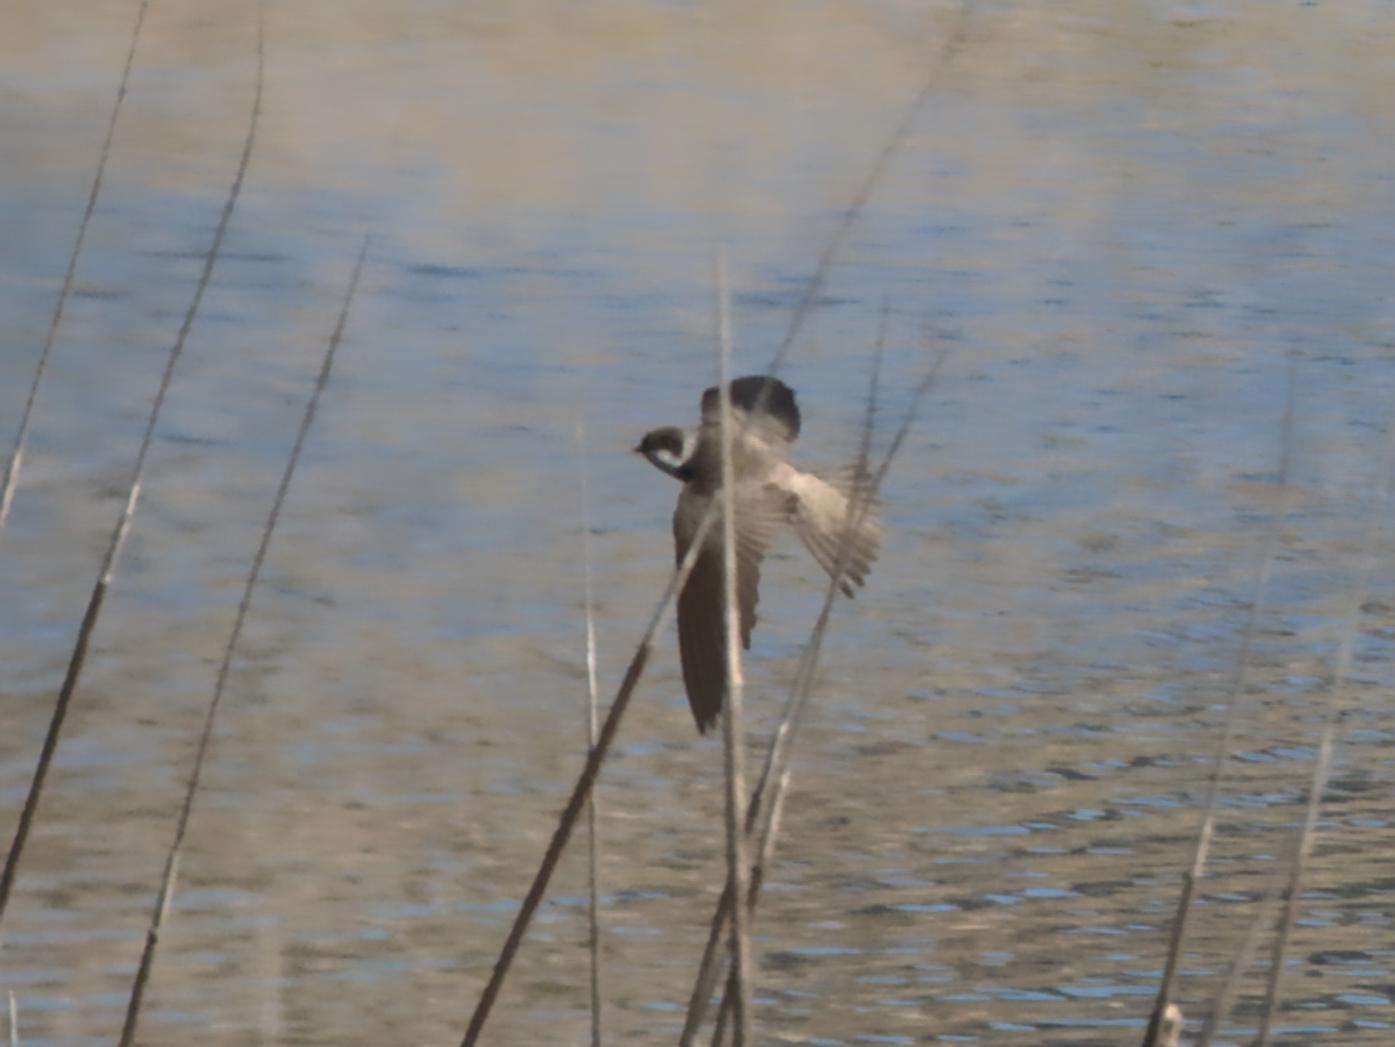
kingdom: Animalia
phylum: Chordata
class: Aves
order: Passeriformes
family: Hirundinidae
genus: Riparia
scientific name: Riparia riparia
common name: Sand martin
